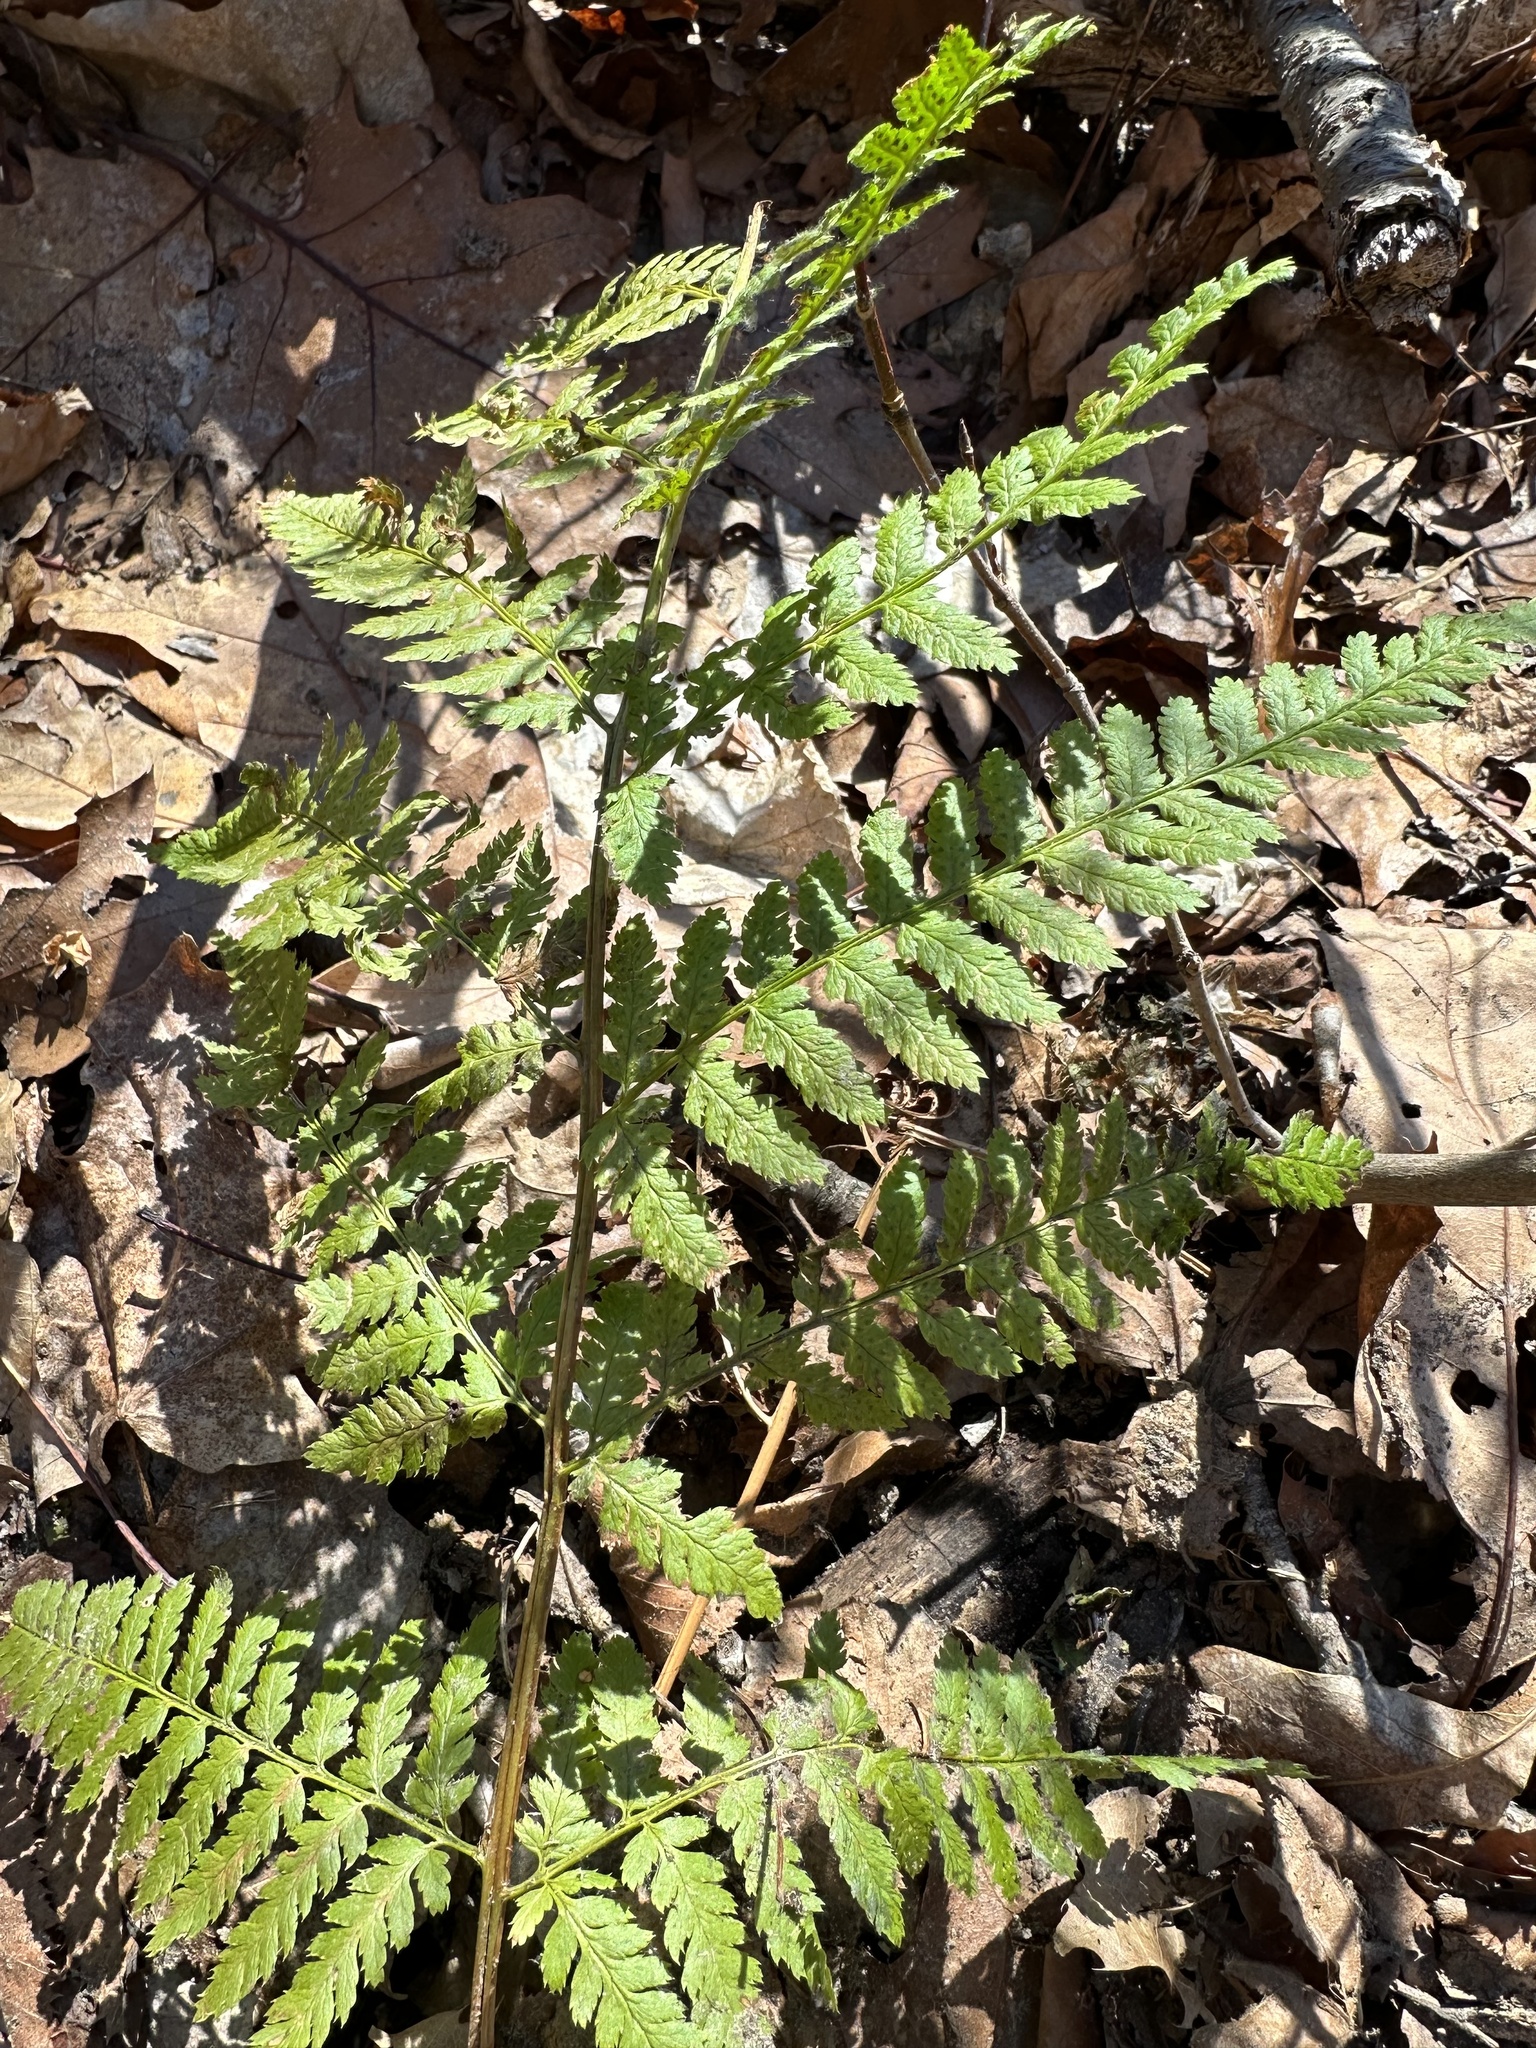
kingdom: Plantae
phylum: Tracheophyta
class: Polypodiopsida
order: Polypodiales
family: Dryopteridaceae
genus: Dryopteris
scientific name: Dryopteris intermedia
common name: Evergreen wood fern
